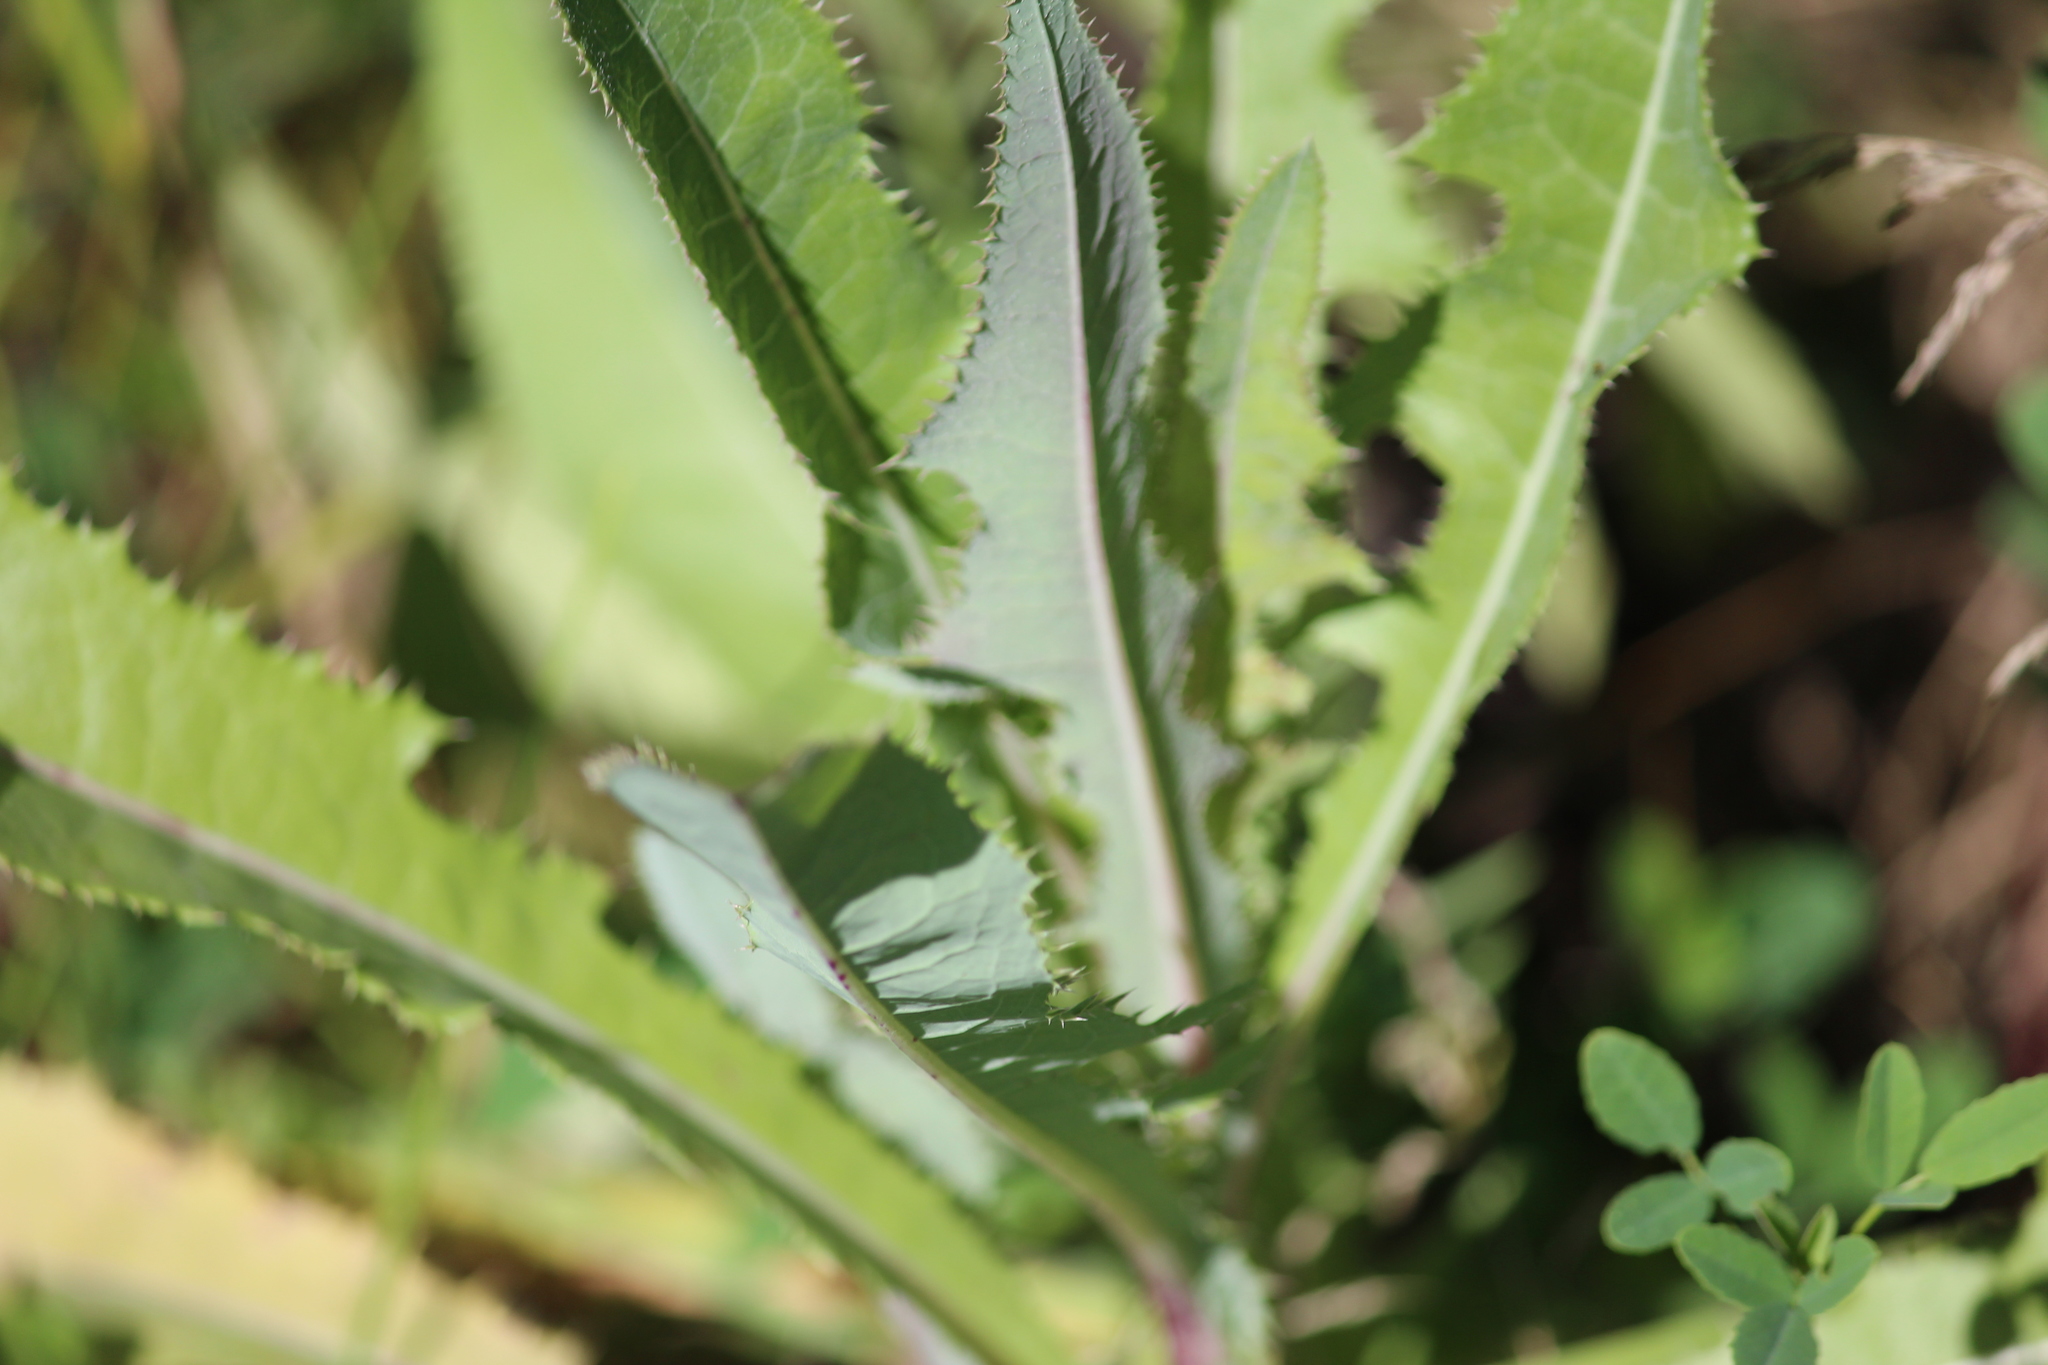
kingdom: Plantae
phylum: Tracheophyta
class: Magnoliopsida
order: Asterales
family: Asteraceae
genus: Sonchus
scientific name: Sonchus arvensis
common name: Perennial sow-thistle
